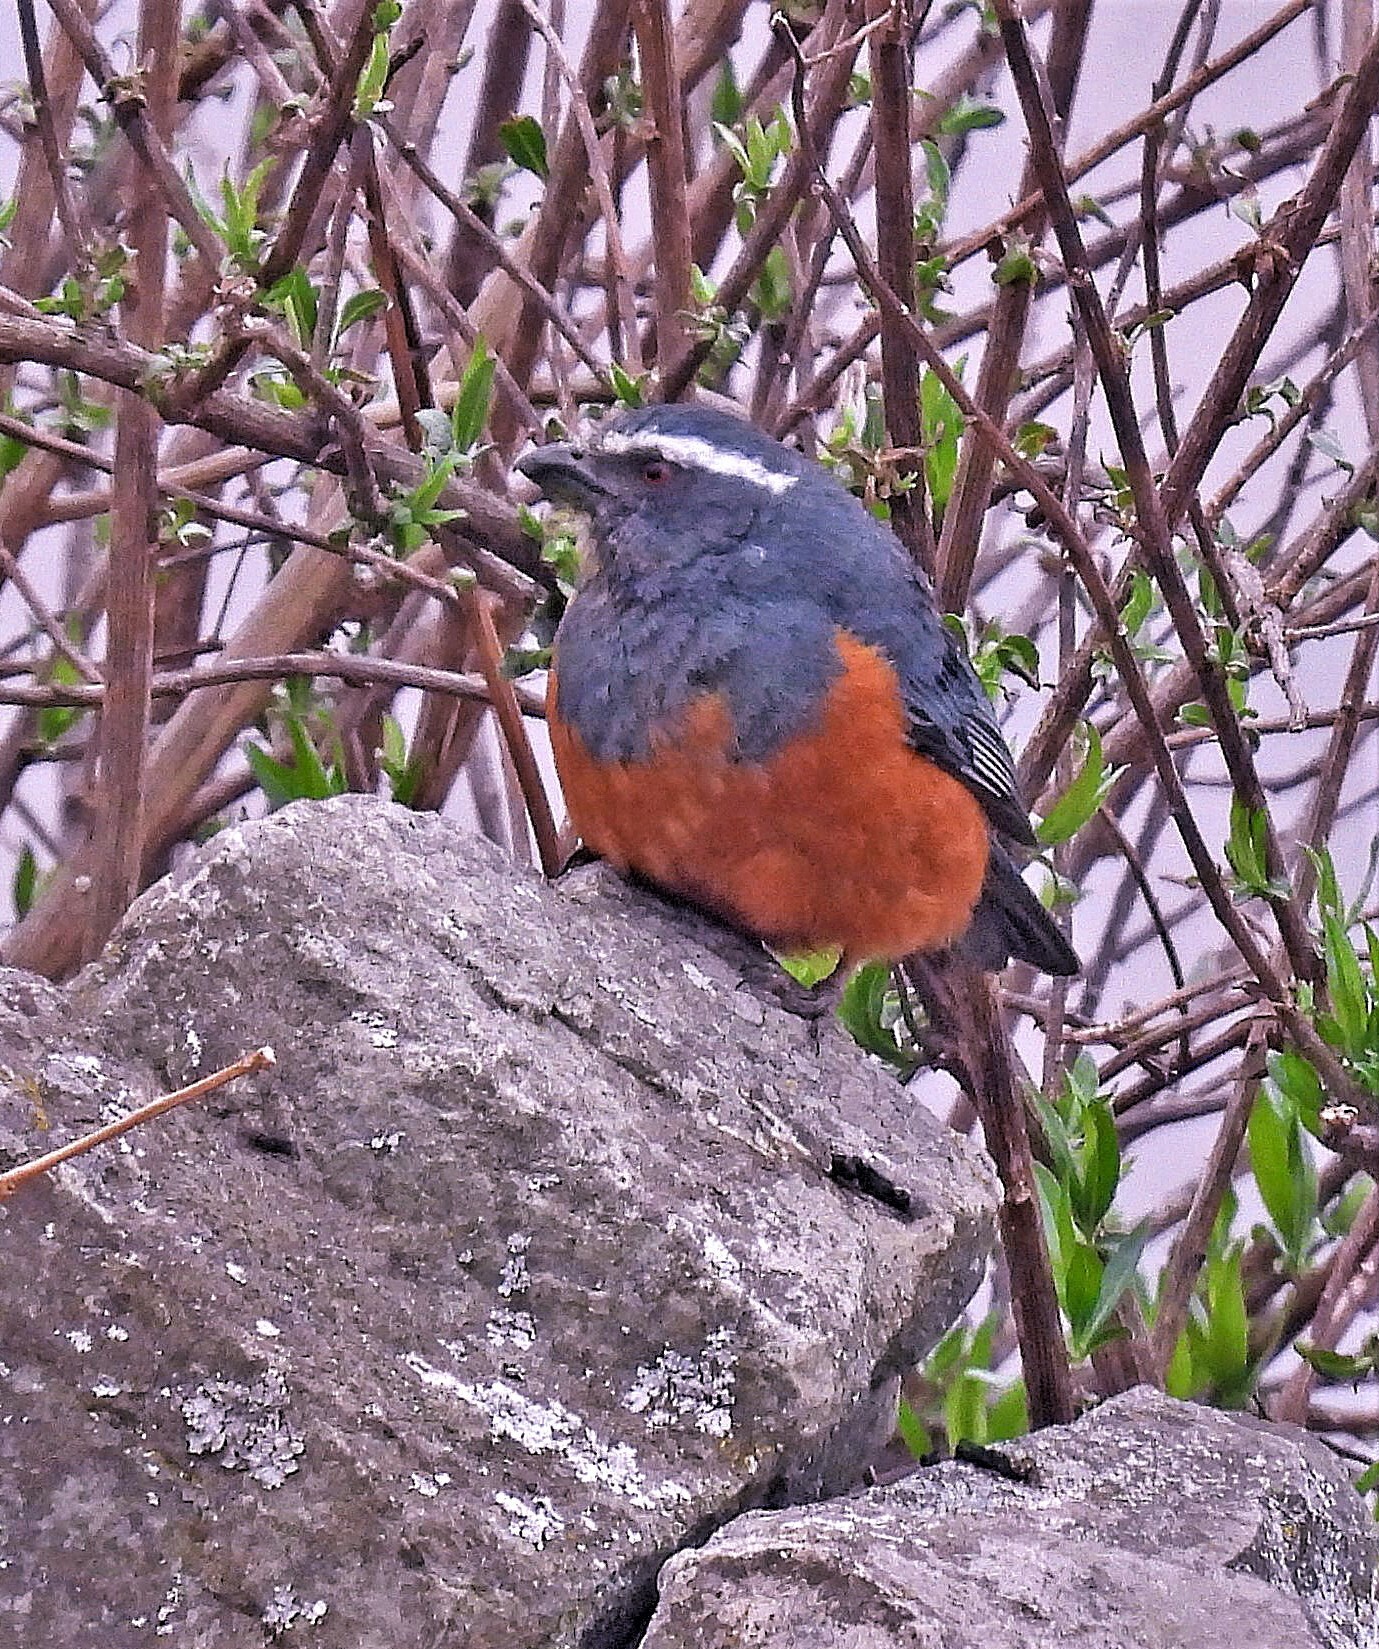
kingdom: Animalia
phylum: Chordata
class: Aves
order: Passeriformes
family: Thraupidae
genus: Pseudosaltator
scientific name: Pseudosaltator rufiventris
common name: Rufous-bellied mountain-tanager
